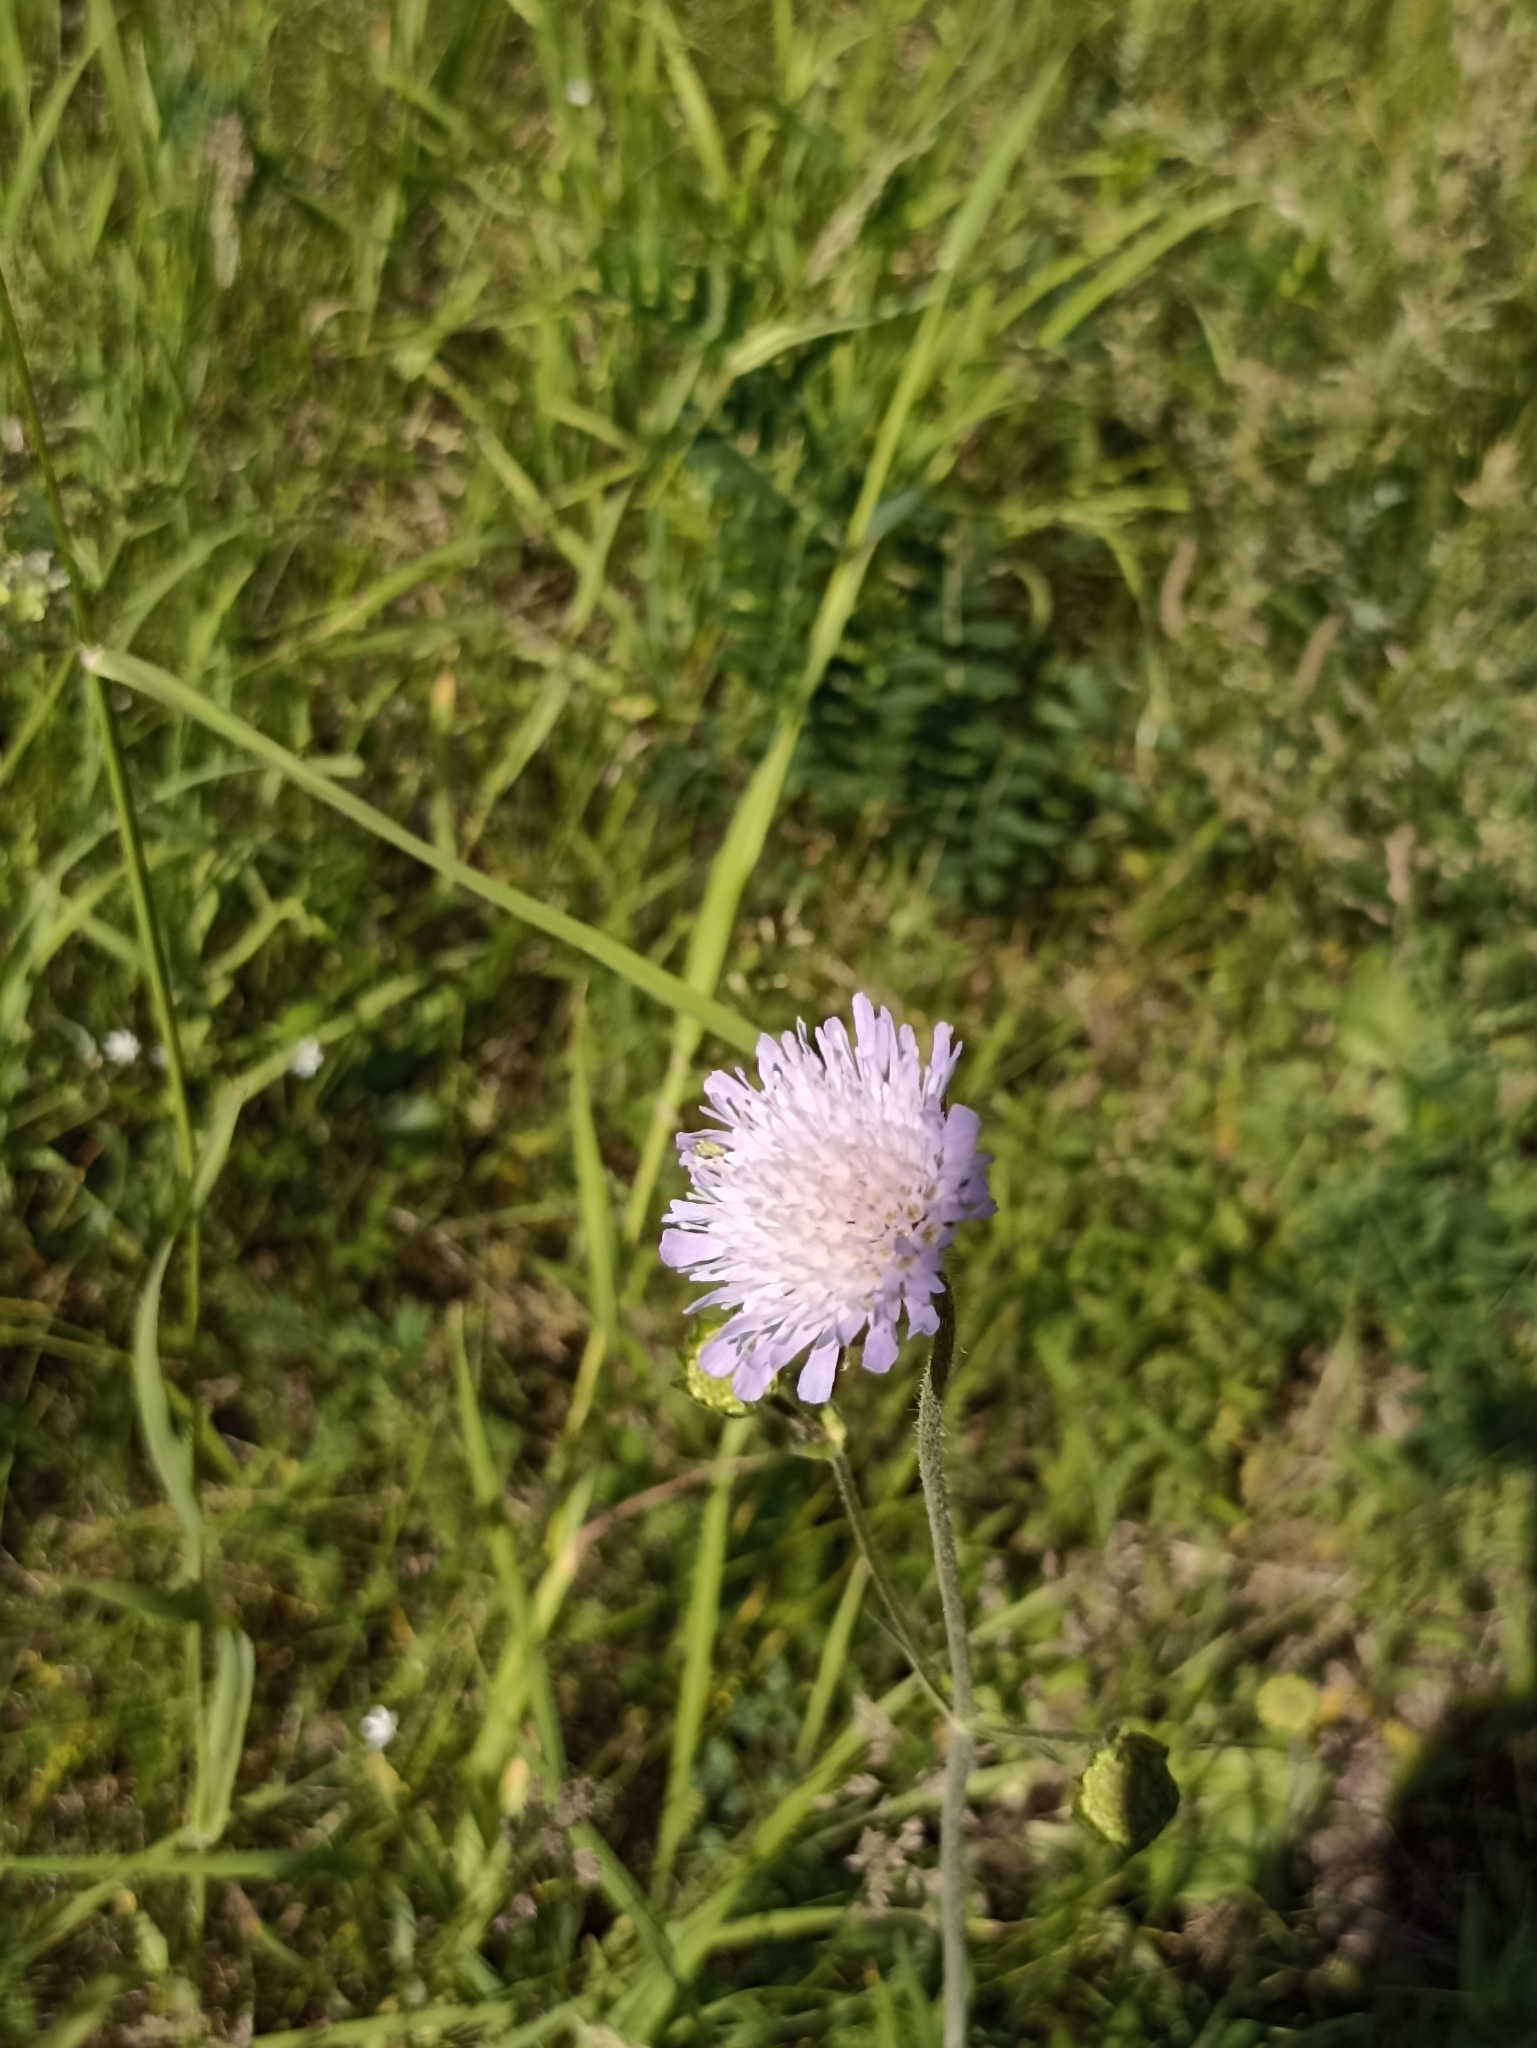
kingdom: Plantae
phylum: Tracheophyta
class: Magnoliopsida
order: Dipsacales
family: Caprifoliaceae
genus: Knautia
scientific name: Knautia arvensis
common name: Field scabiosa
